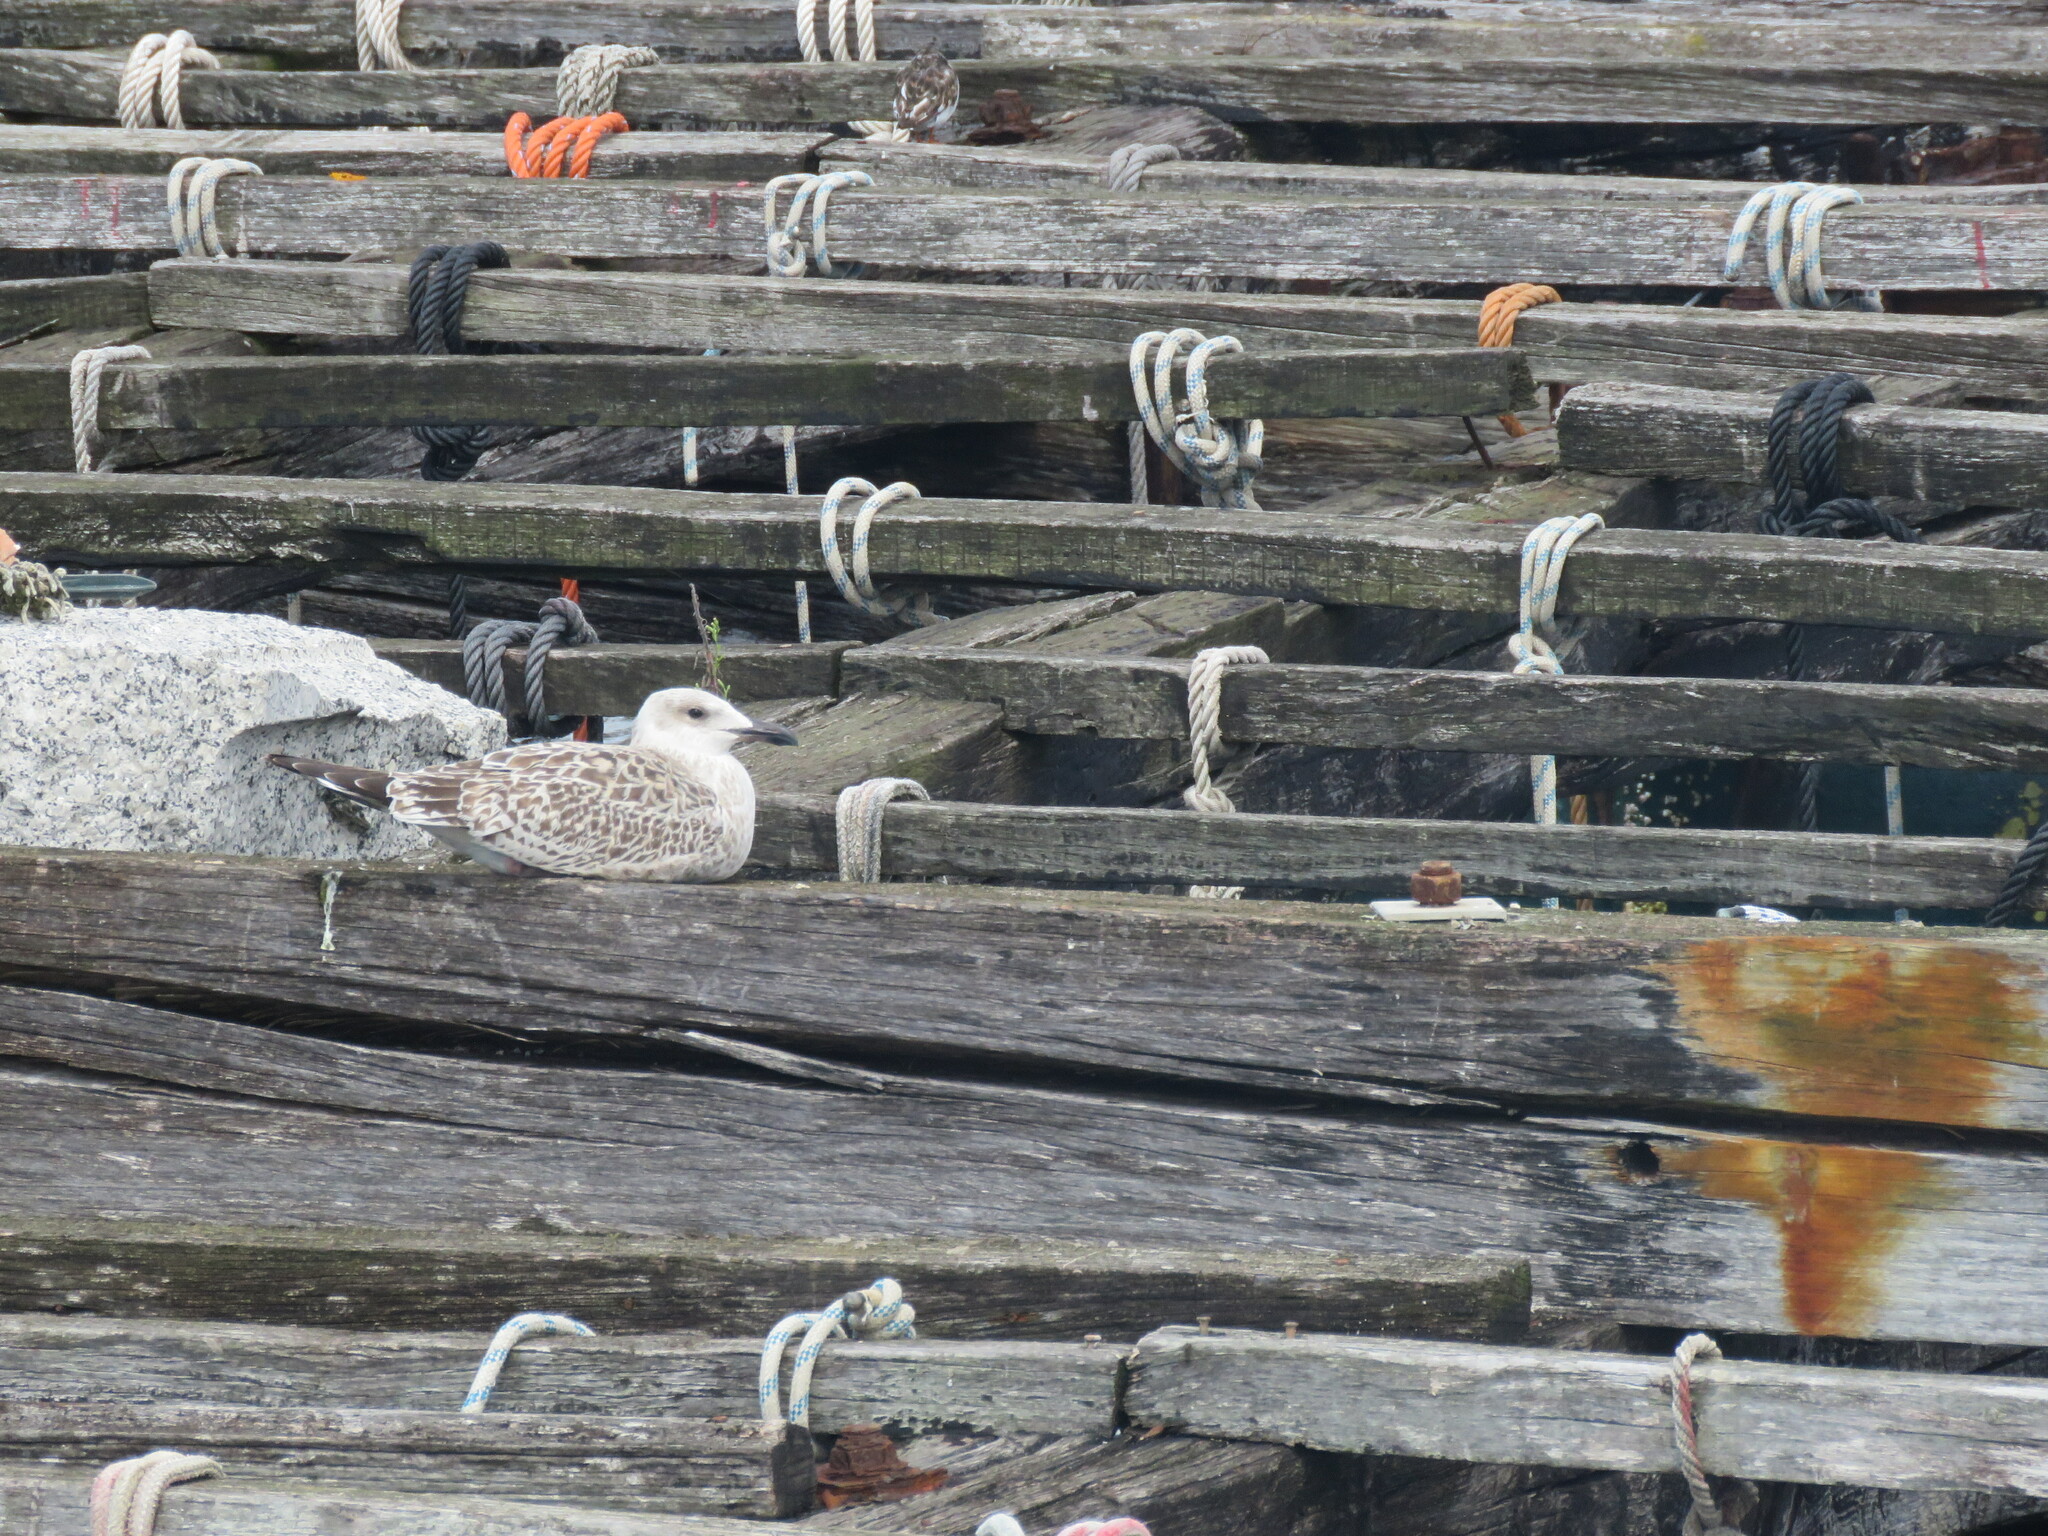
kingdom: Animalia
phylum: Chordata
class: Aves
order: Charadriiformes
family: Laridae
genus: Larus
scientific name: Larus michahellis
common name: Yellow-legged gull
